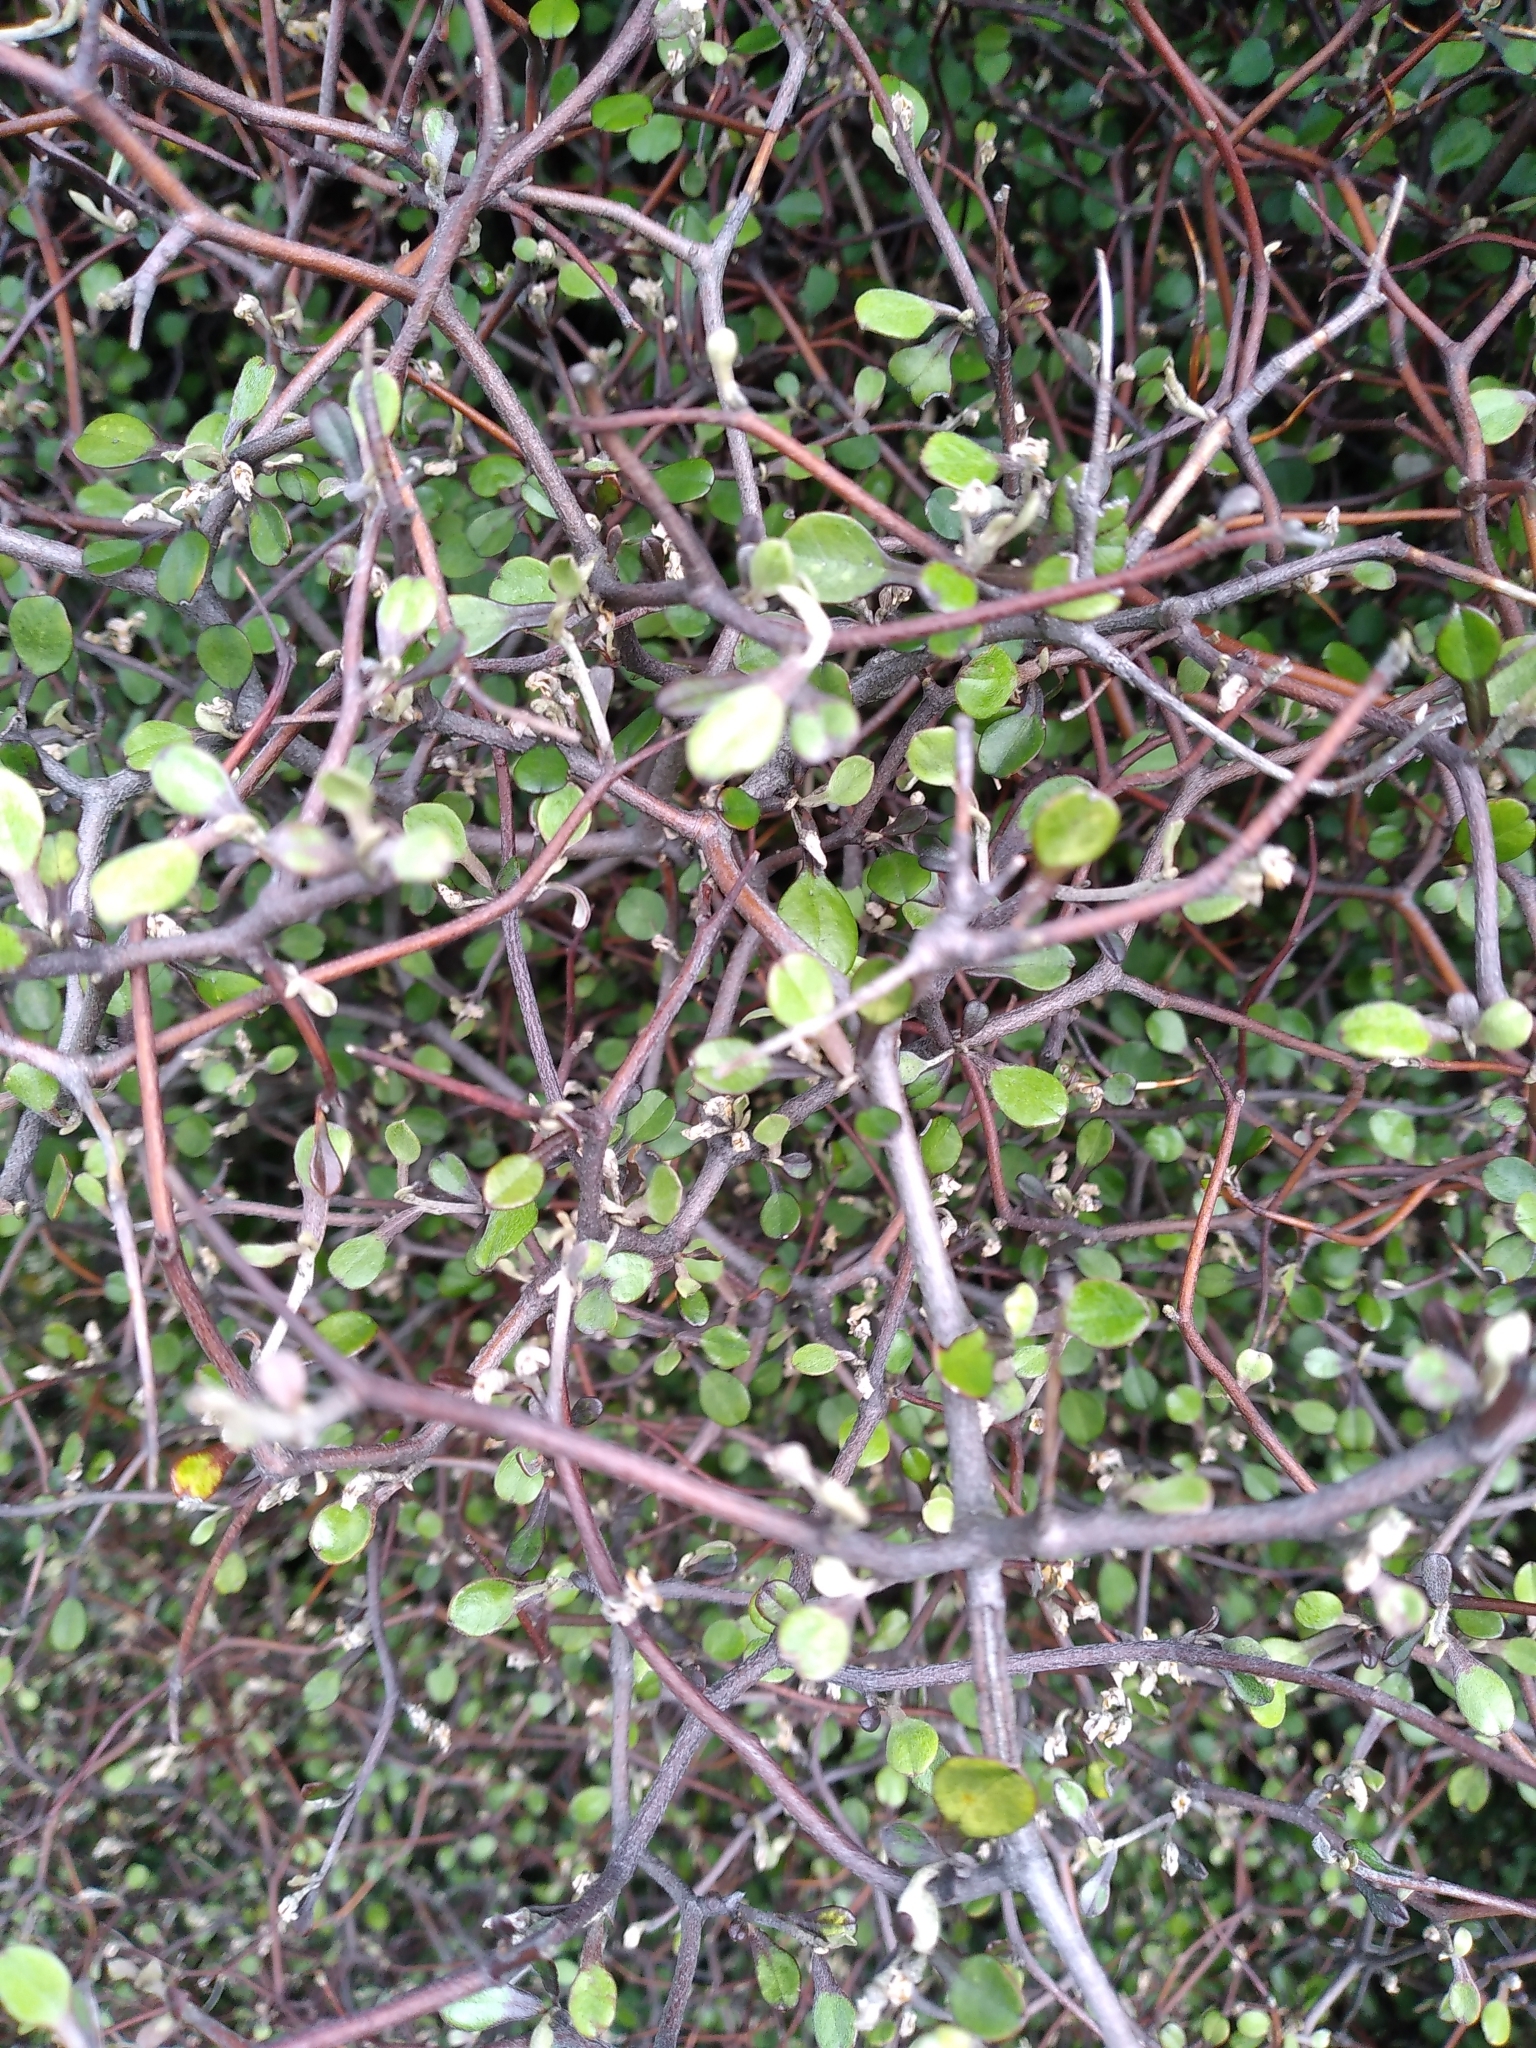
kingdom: Plantae
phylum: Tracheophyta
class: Magnoliopsida
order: Asterales
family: Argophyllaceae
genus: Corokia
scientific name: Corokia cotoneaster
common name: Wire nettingbush
